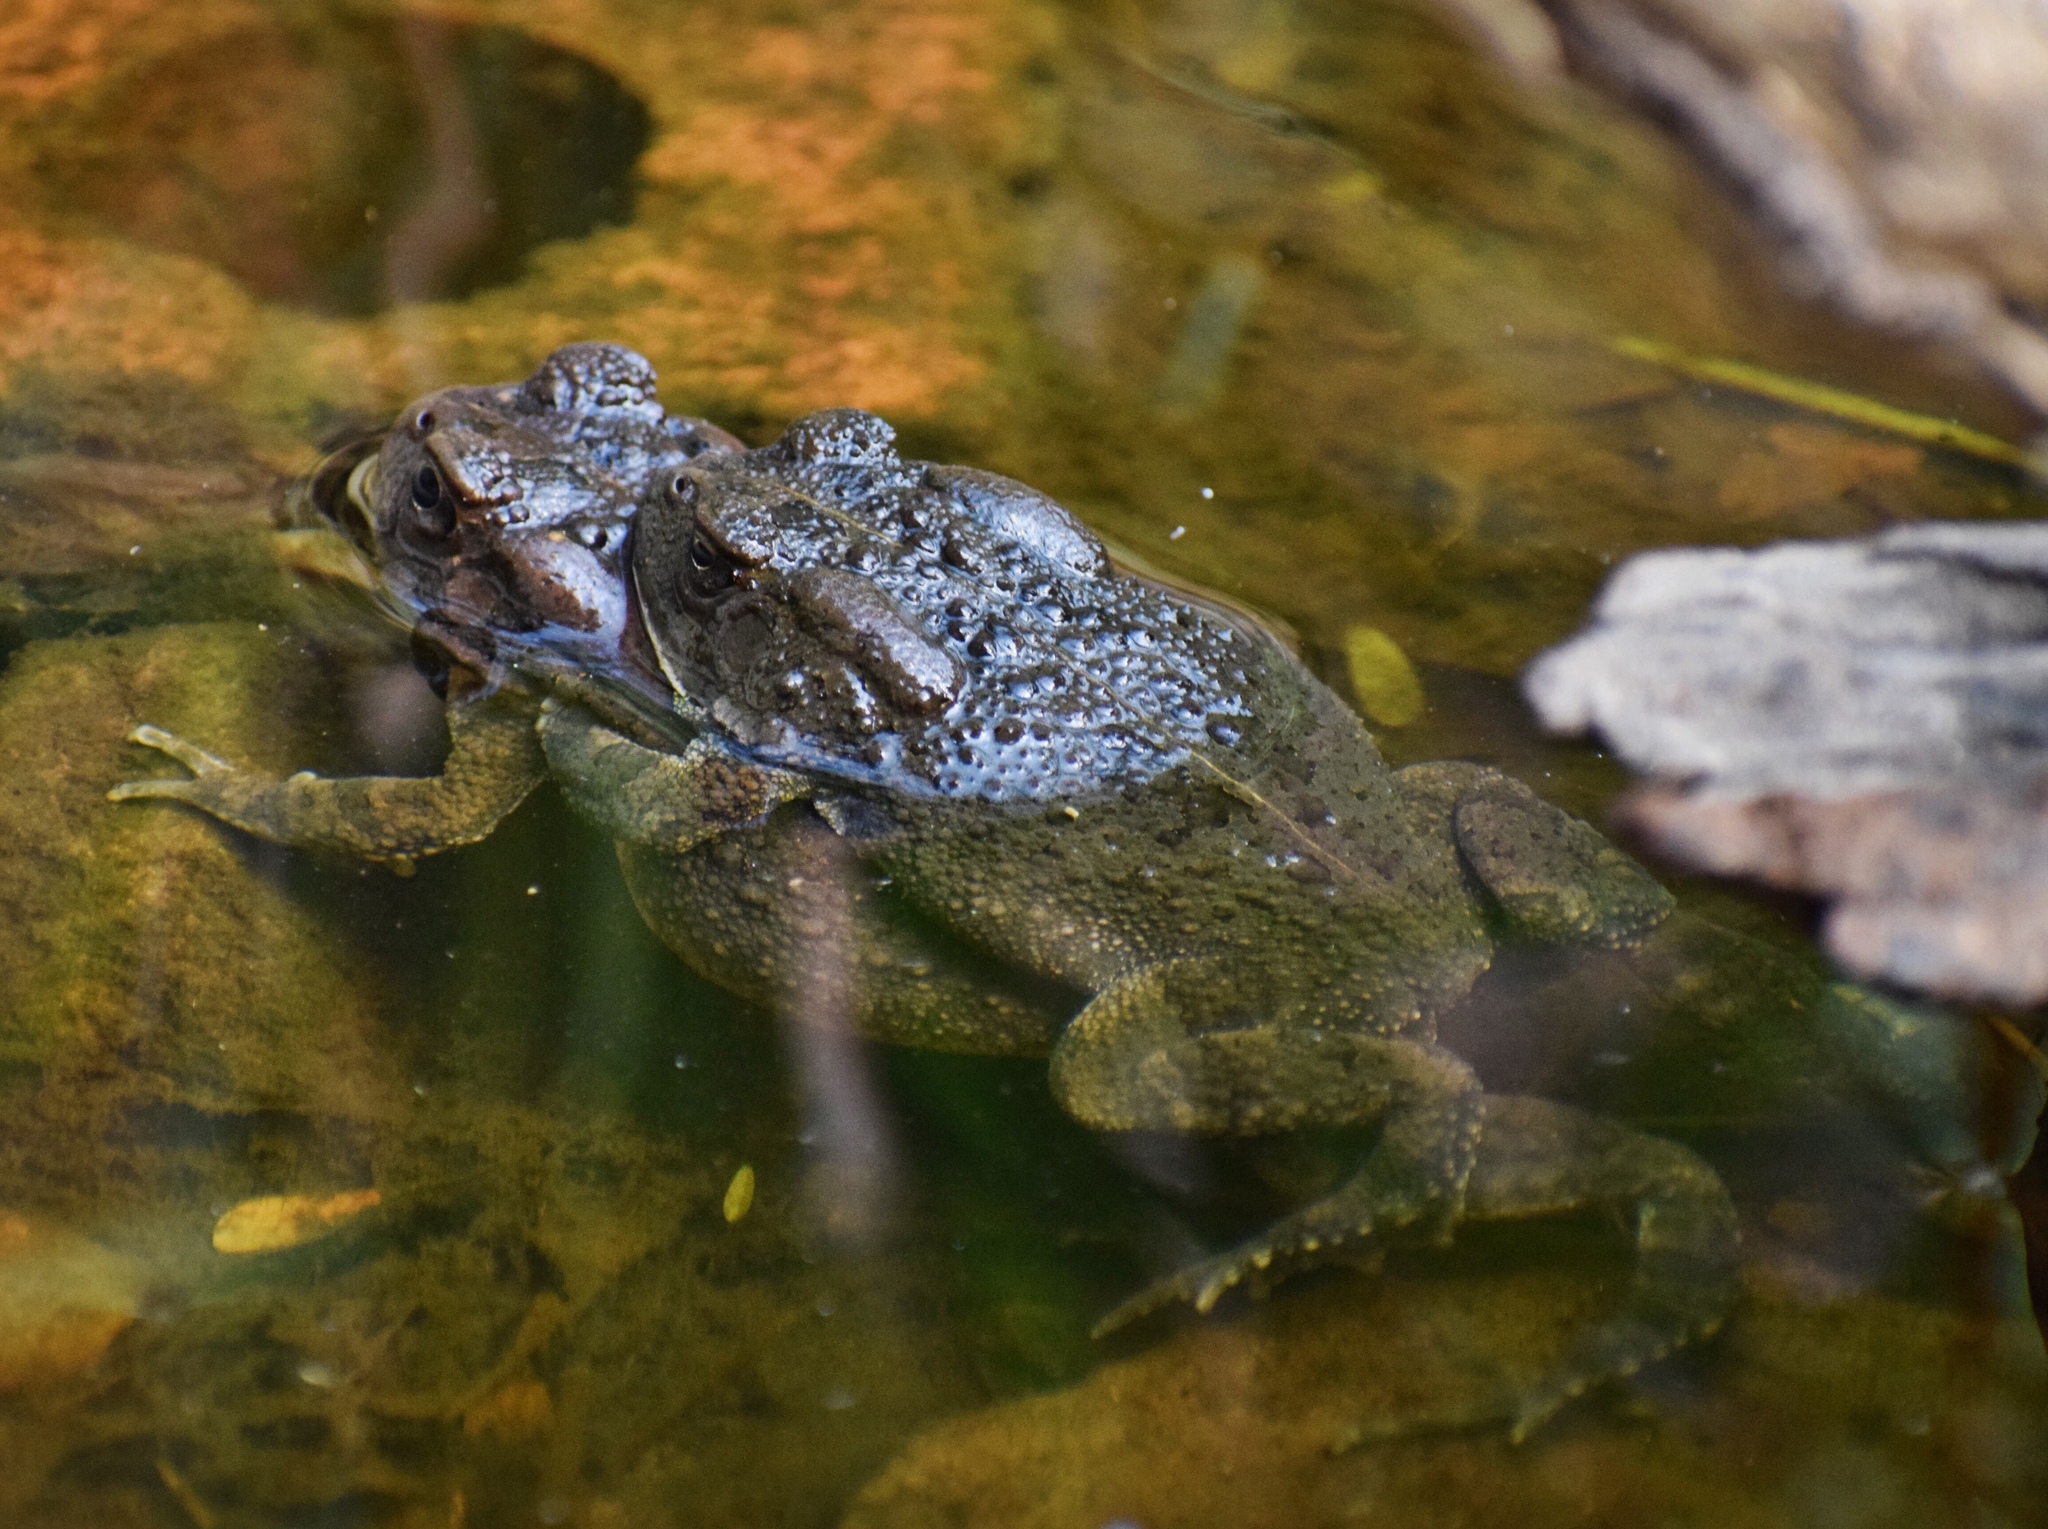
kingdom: Animalia
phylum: Chordata
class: Amphibia
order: Anura
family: Bufonidae
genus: Sclerophrys
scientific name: Sclerophrys gutturalis
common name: African common toad
